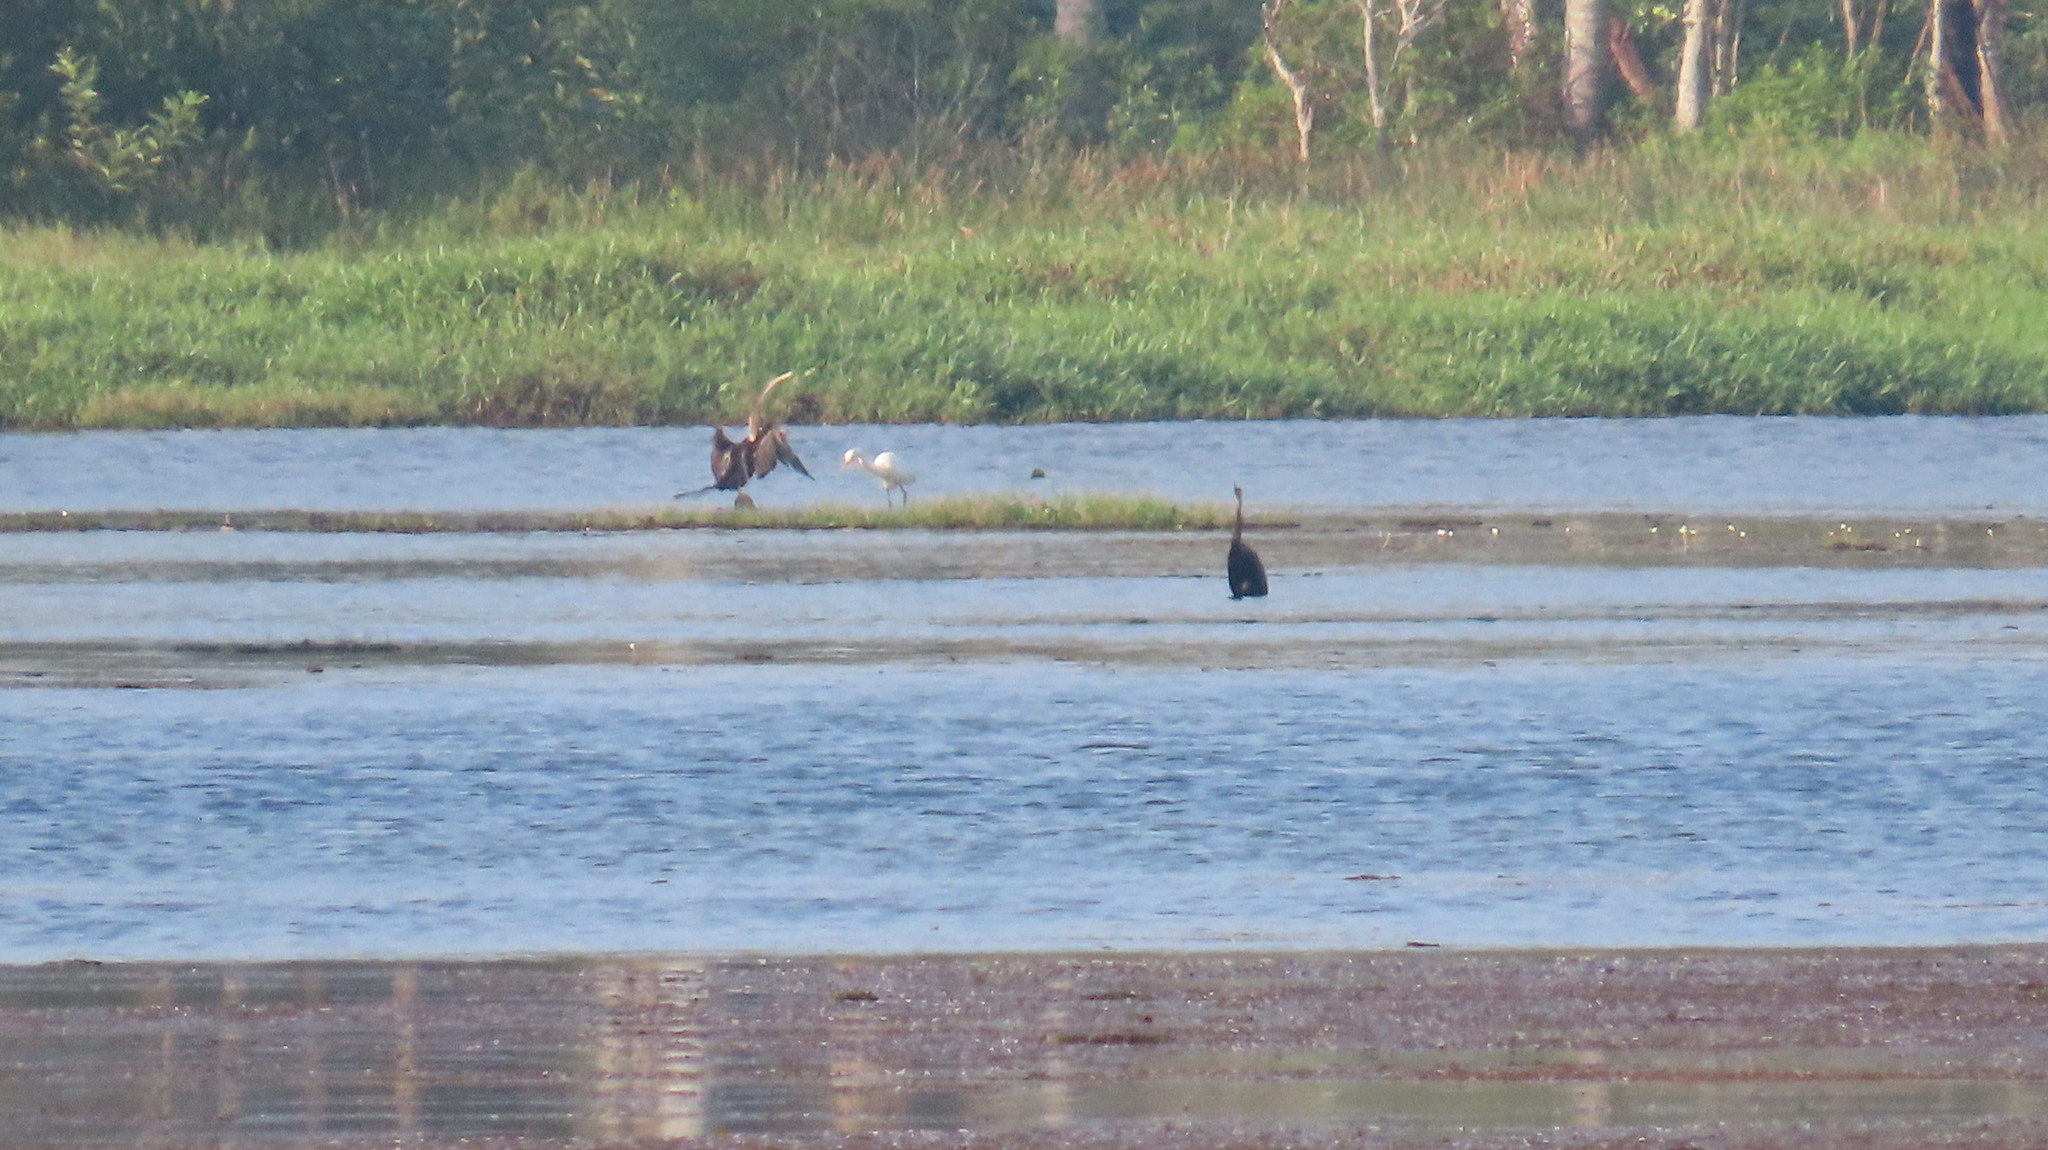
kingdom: Animalia
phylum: Chordata
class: Aves
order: Suliformes
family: Anhingidae
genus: Anhinga
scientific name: Anhinga melanogaster
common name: Oriental darter
